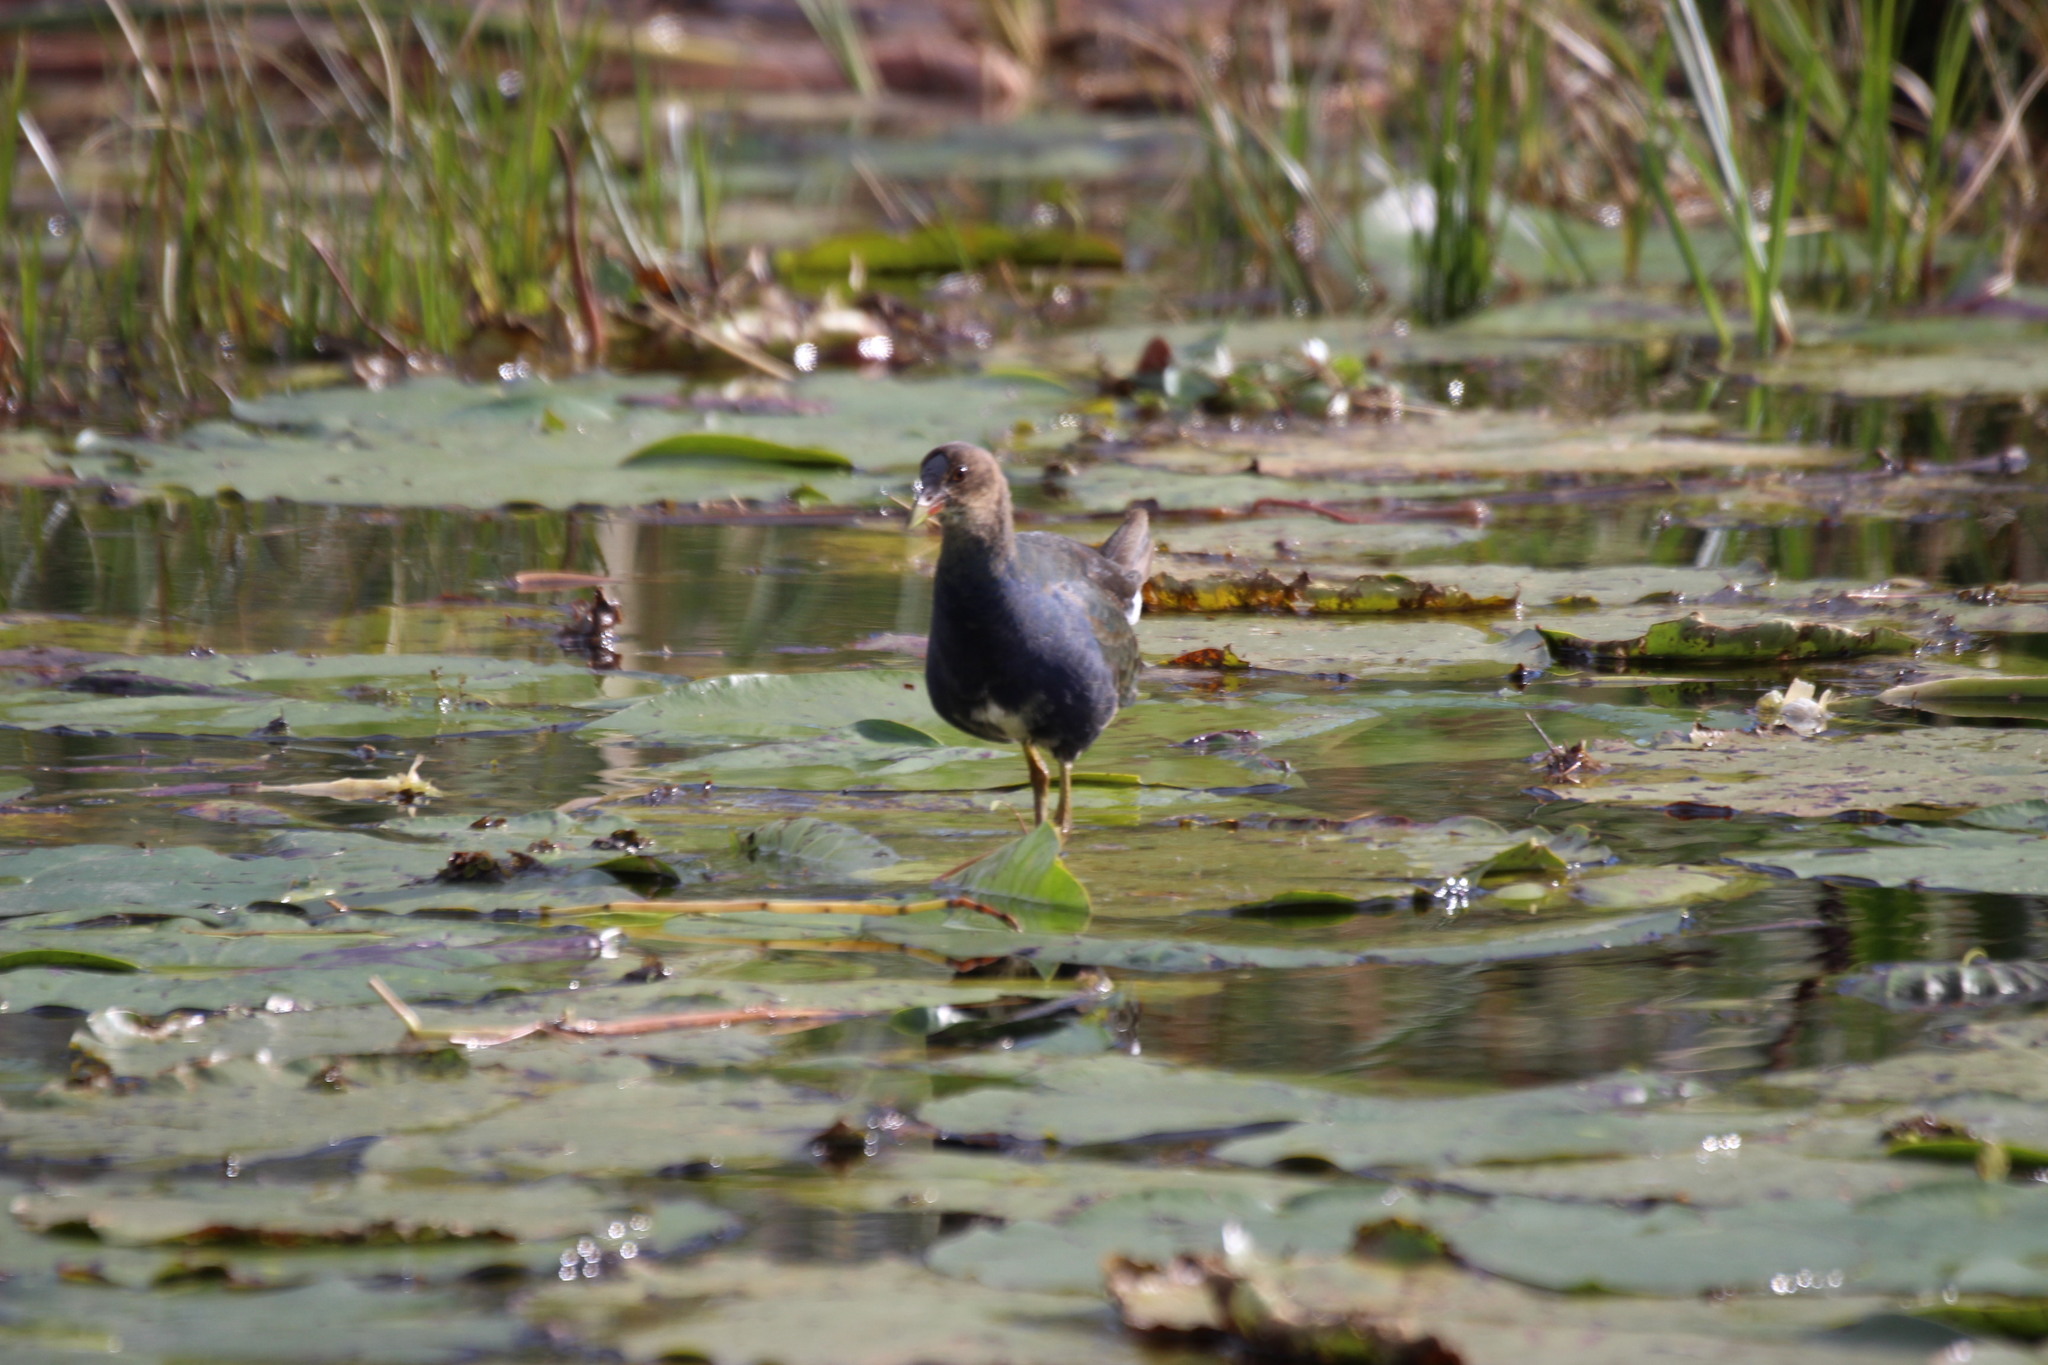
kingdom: Animalia
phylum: Chordata
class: Aves
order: Gruiformes
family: Rallidae
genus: Porphyrio
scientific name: Porphyrio martinica
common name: Purple gallinule
